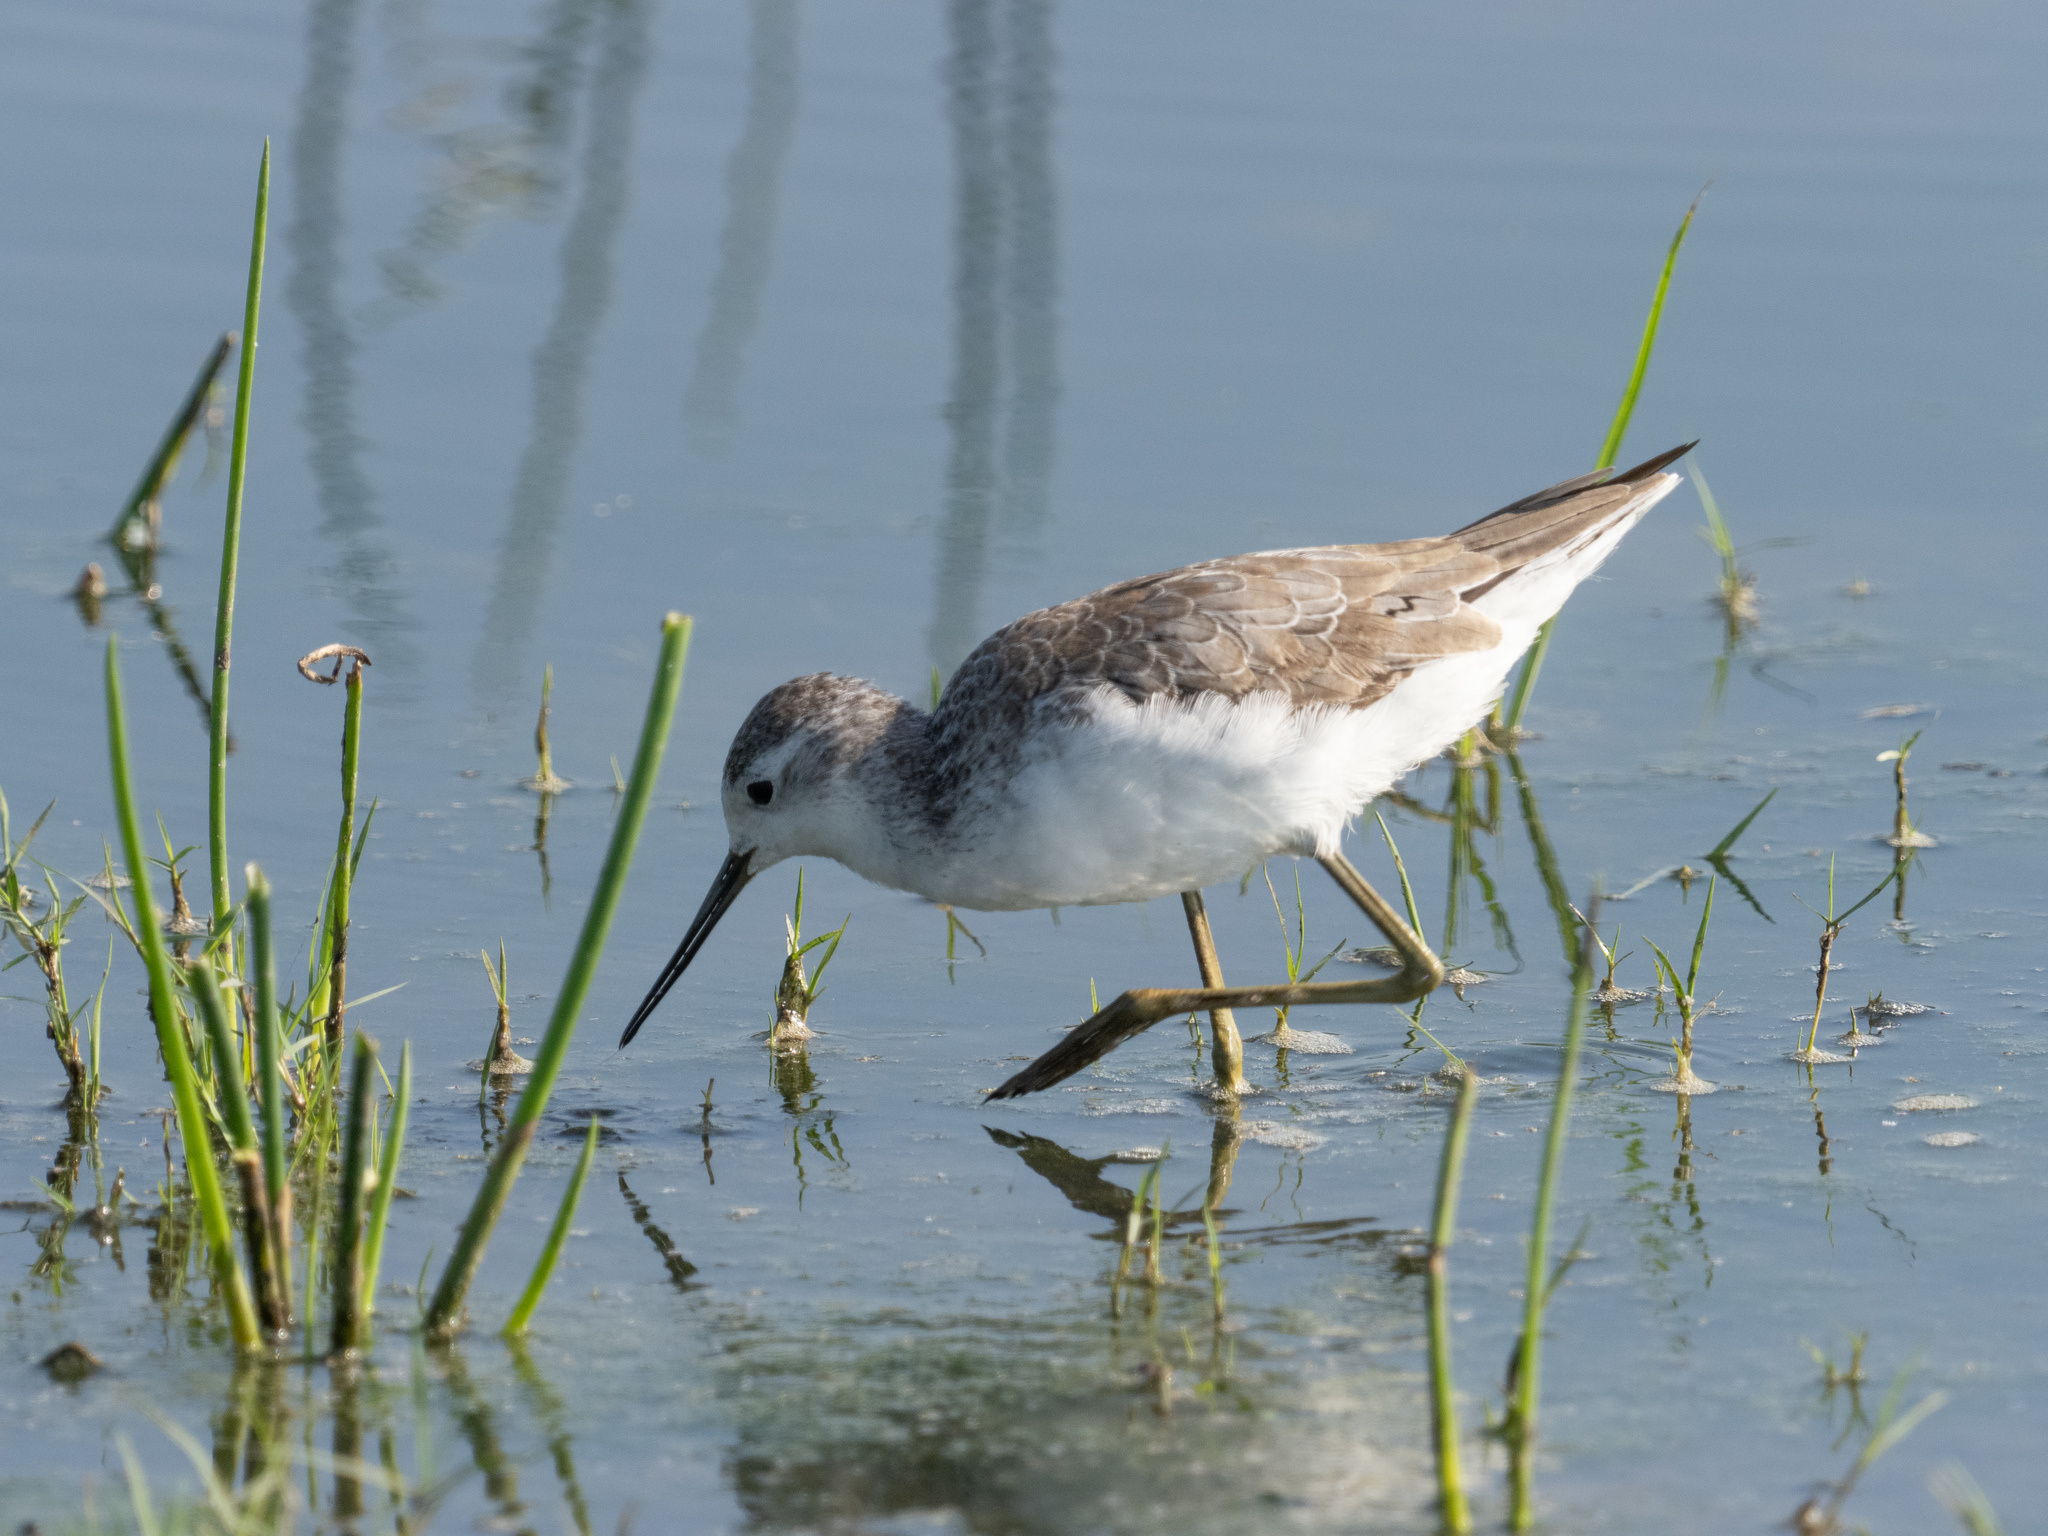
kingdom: Animalia
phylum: Chordata
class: Aves
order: Charadriiformes
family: Scolopacidae
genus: Tringa
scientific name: Tringa stagnatilis
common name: Marsh sandpiper
